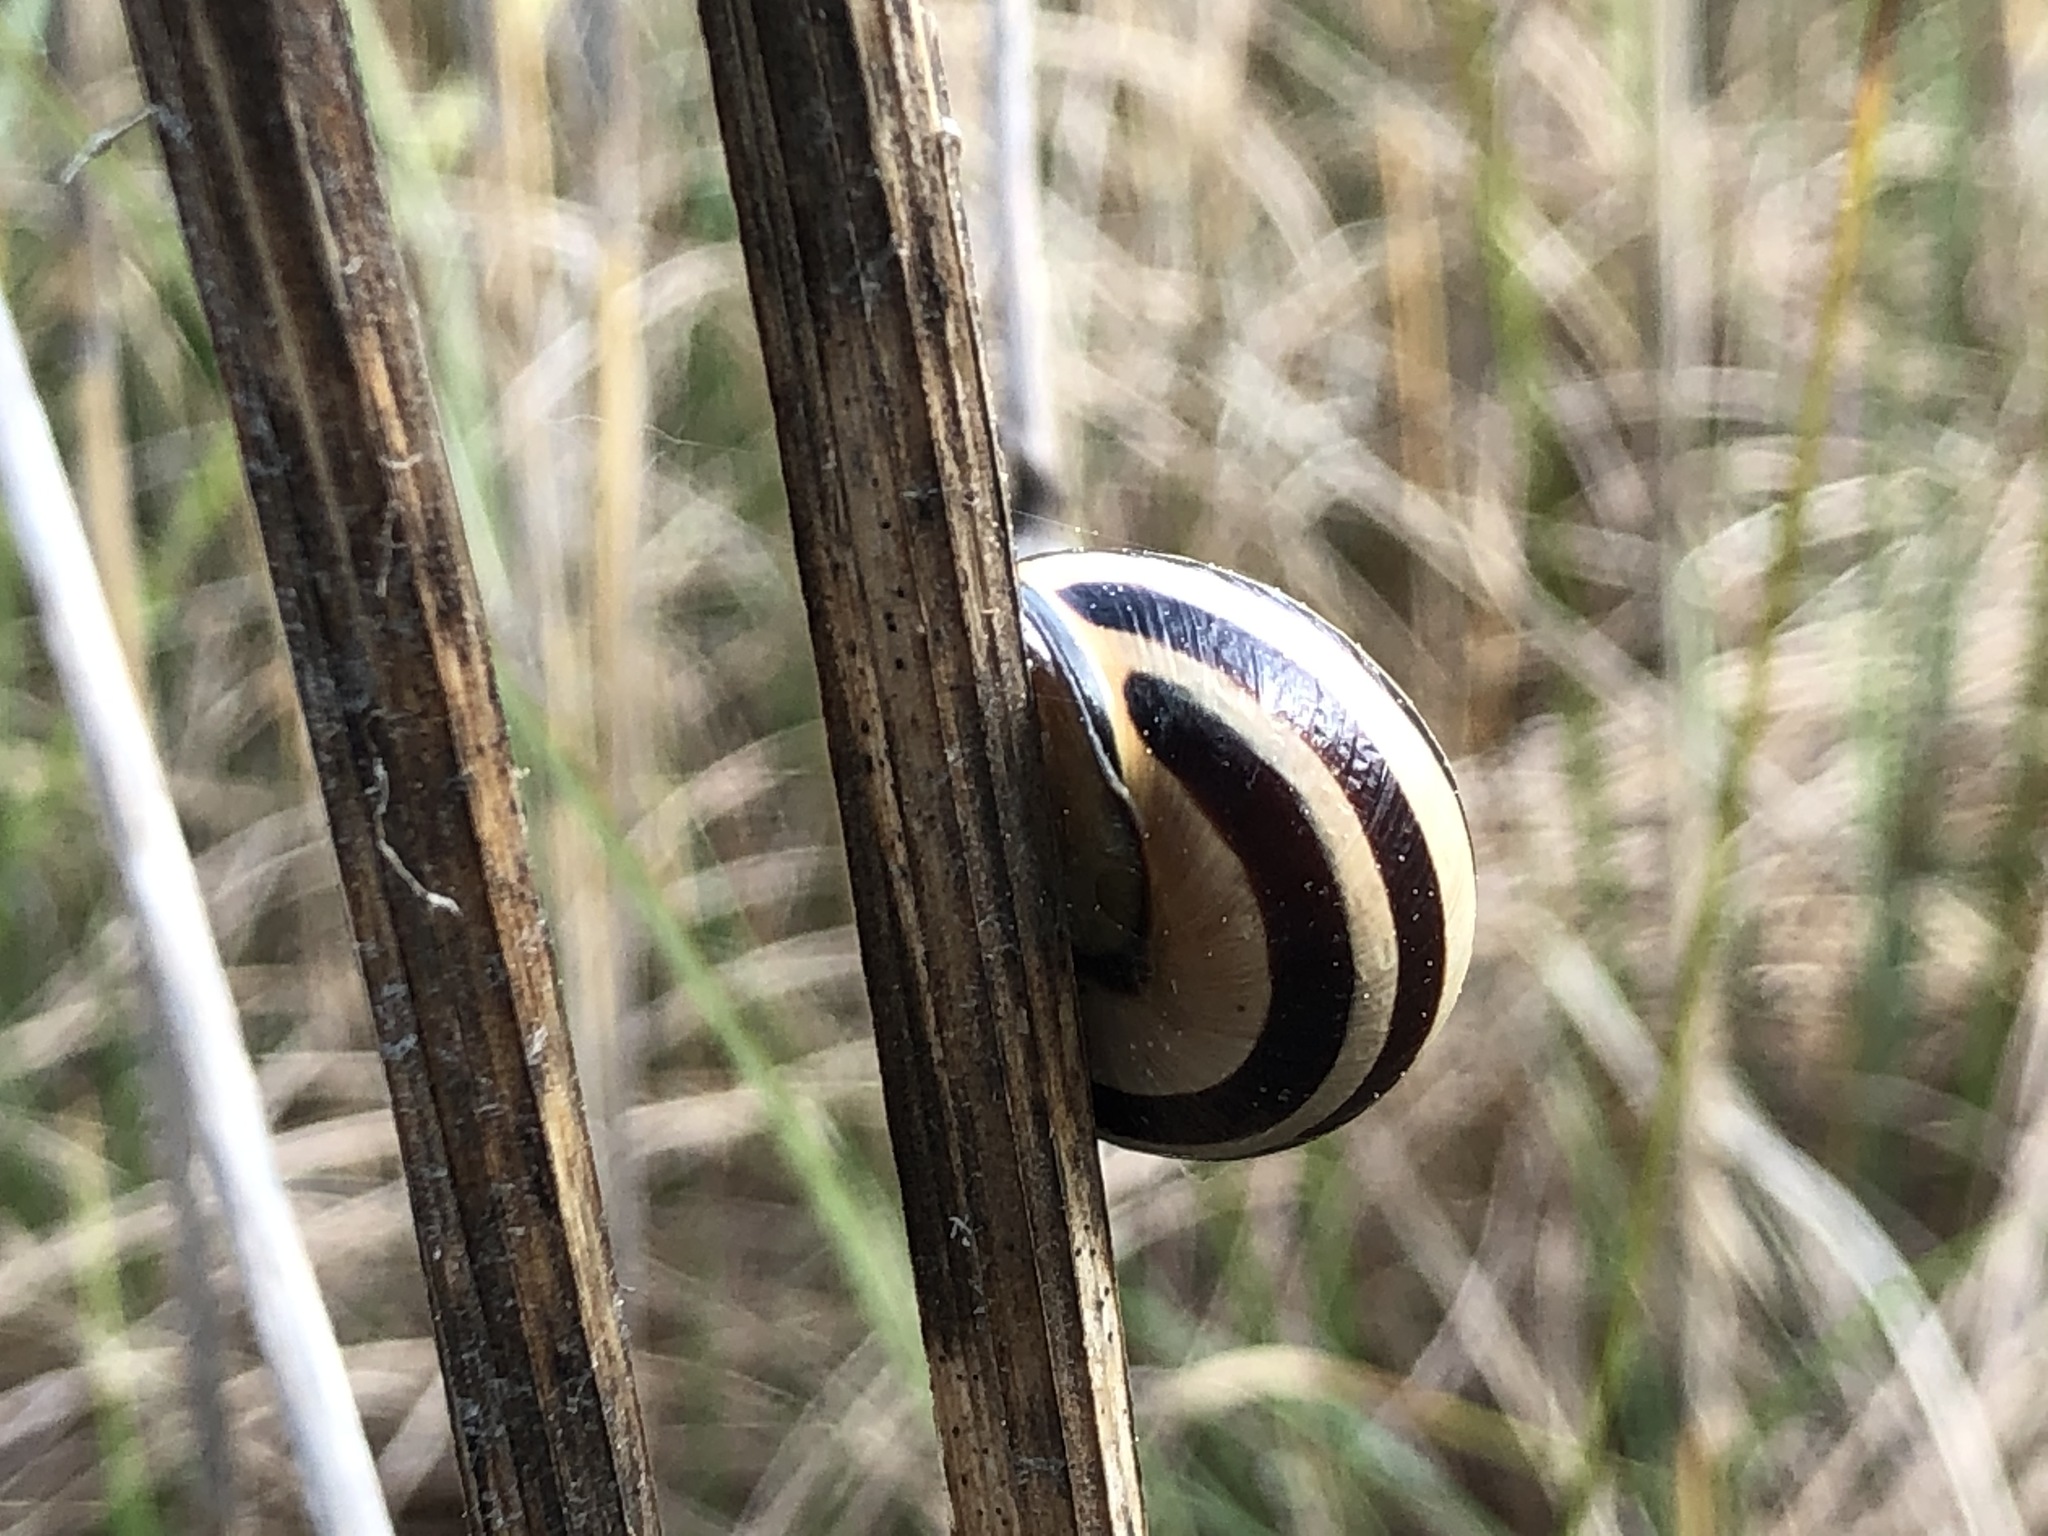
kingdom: Animalia
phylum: Mollusca
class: Gastropoda
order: Stylommatophora
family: Helicidae
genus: Cepaea
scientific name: Cepaea nemoralis
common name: Grovesnail
